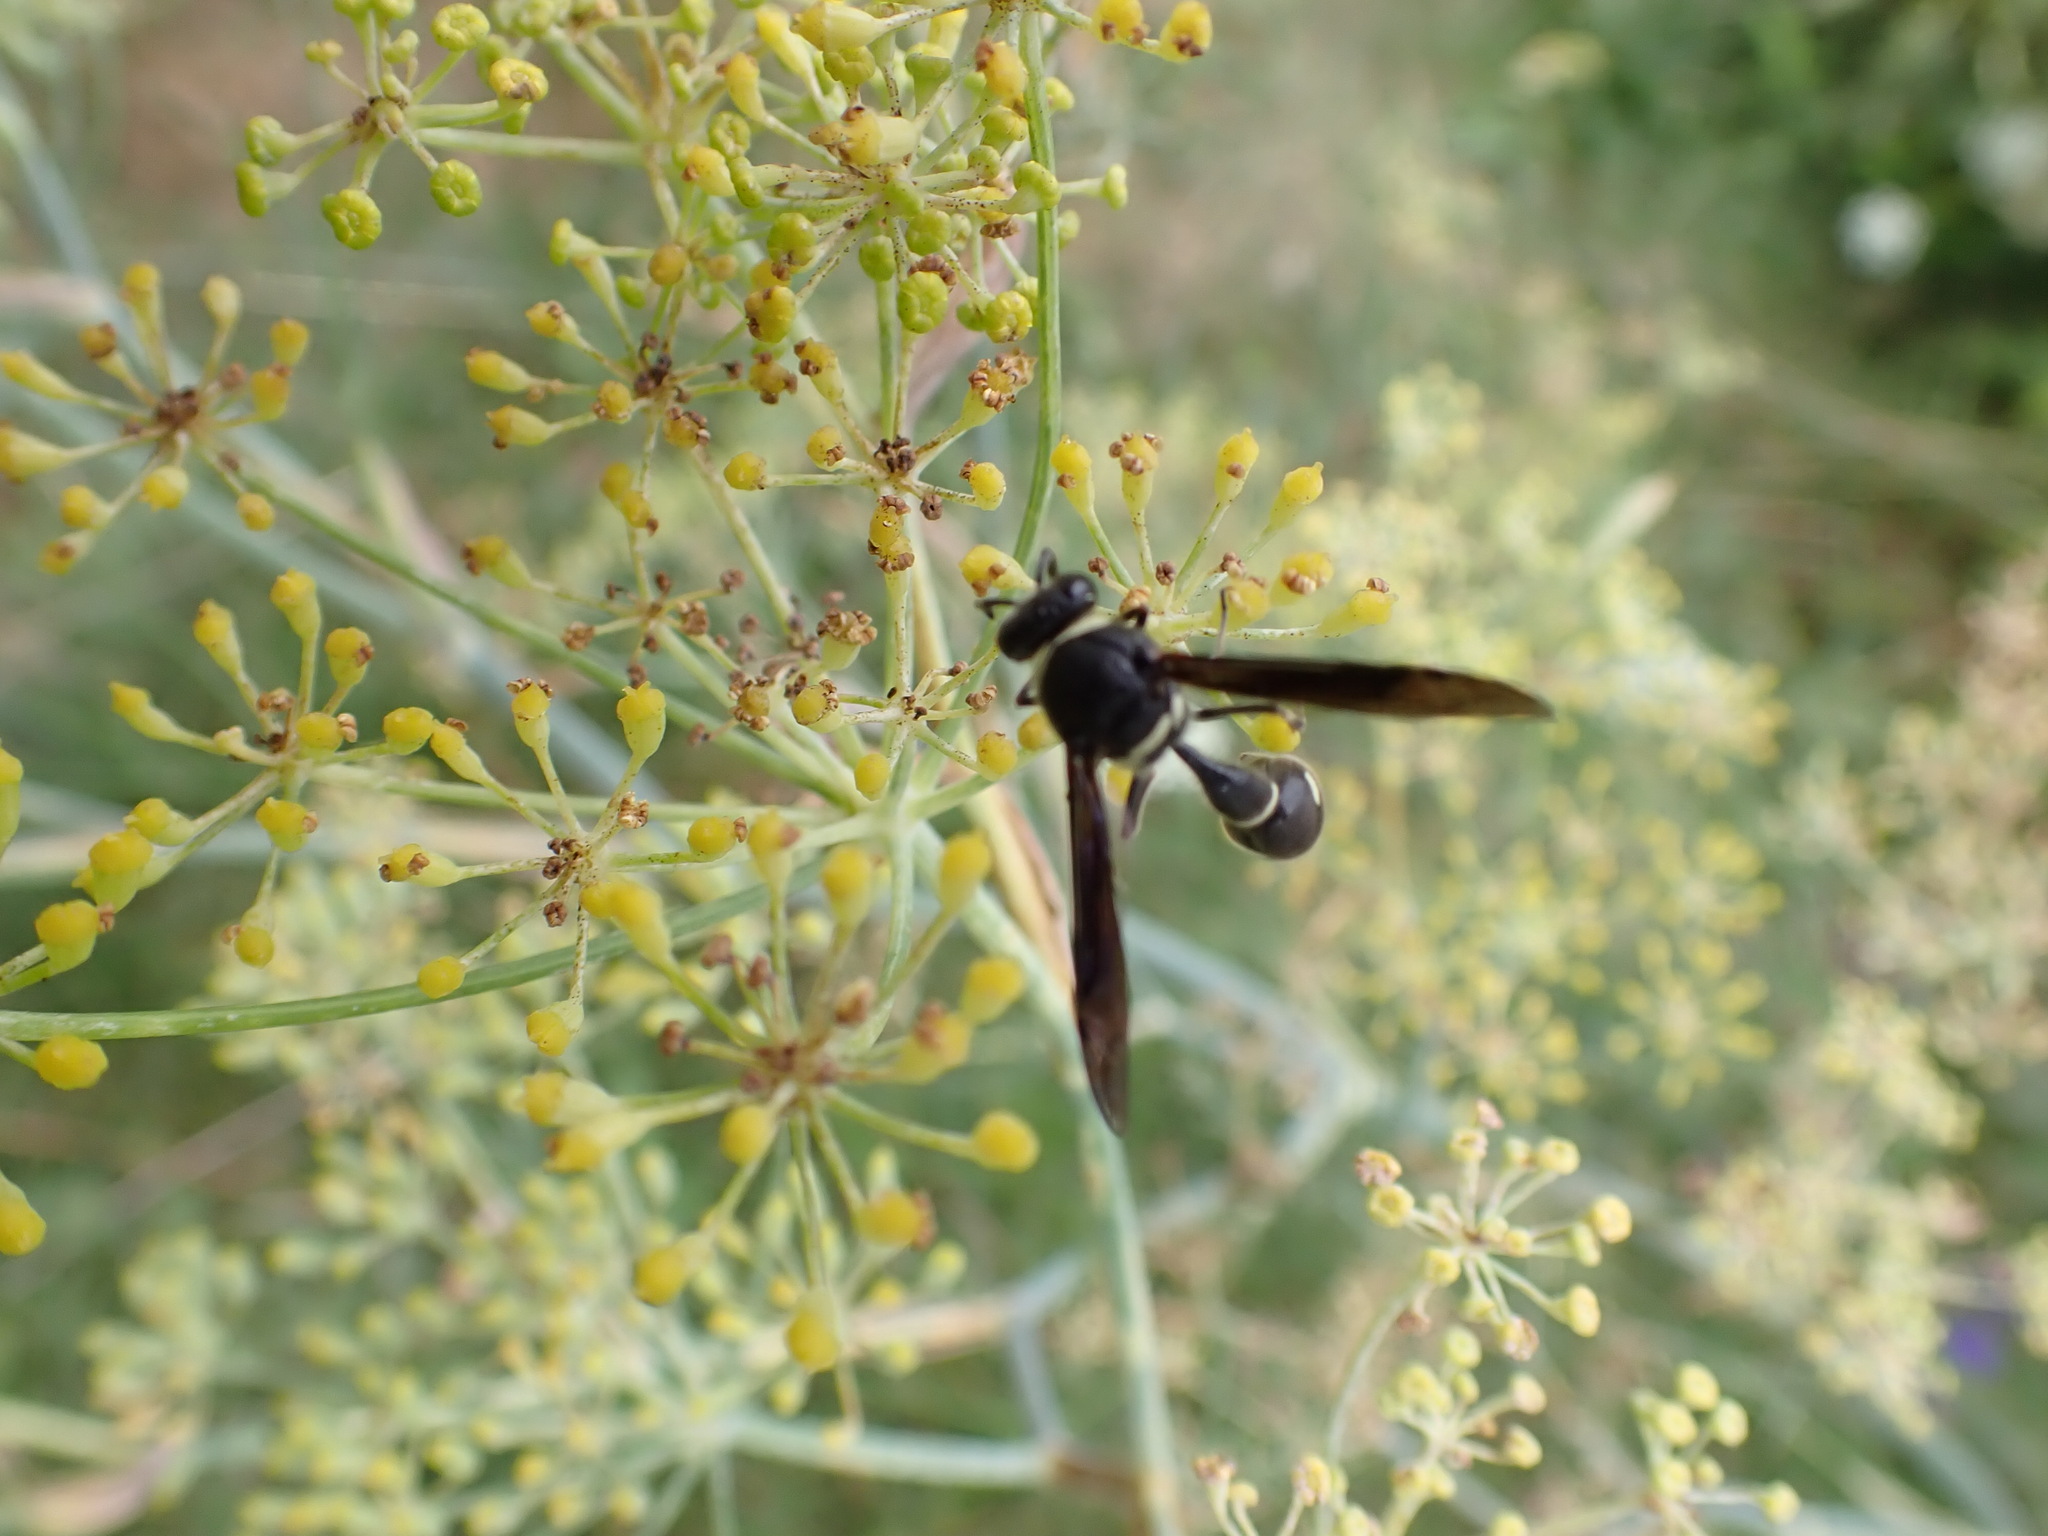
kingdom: Animalia
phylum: Arthropoda
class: Insecta
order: Hymenoptera
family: Vespidae
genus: Eumenes
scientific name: Eumenes fraternus
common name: Fraternal potter wasp
